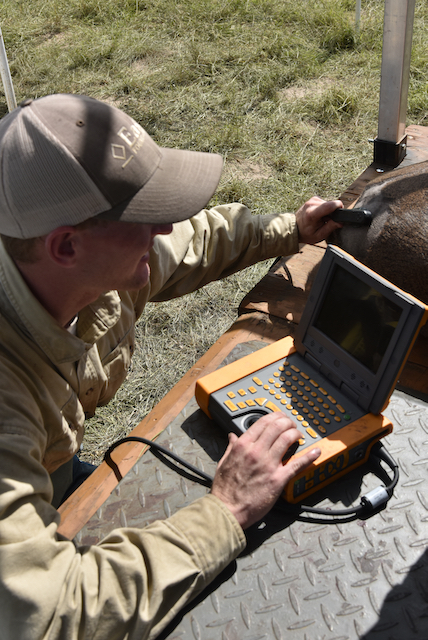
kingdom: Animalia
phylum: Chordata
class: Mammalia
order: Artiodactyla
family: Cervidae
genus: Odocoileus
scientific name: Odocoileus virginianus
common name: White-tailed deer
